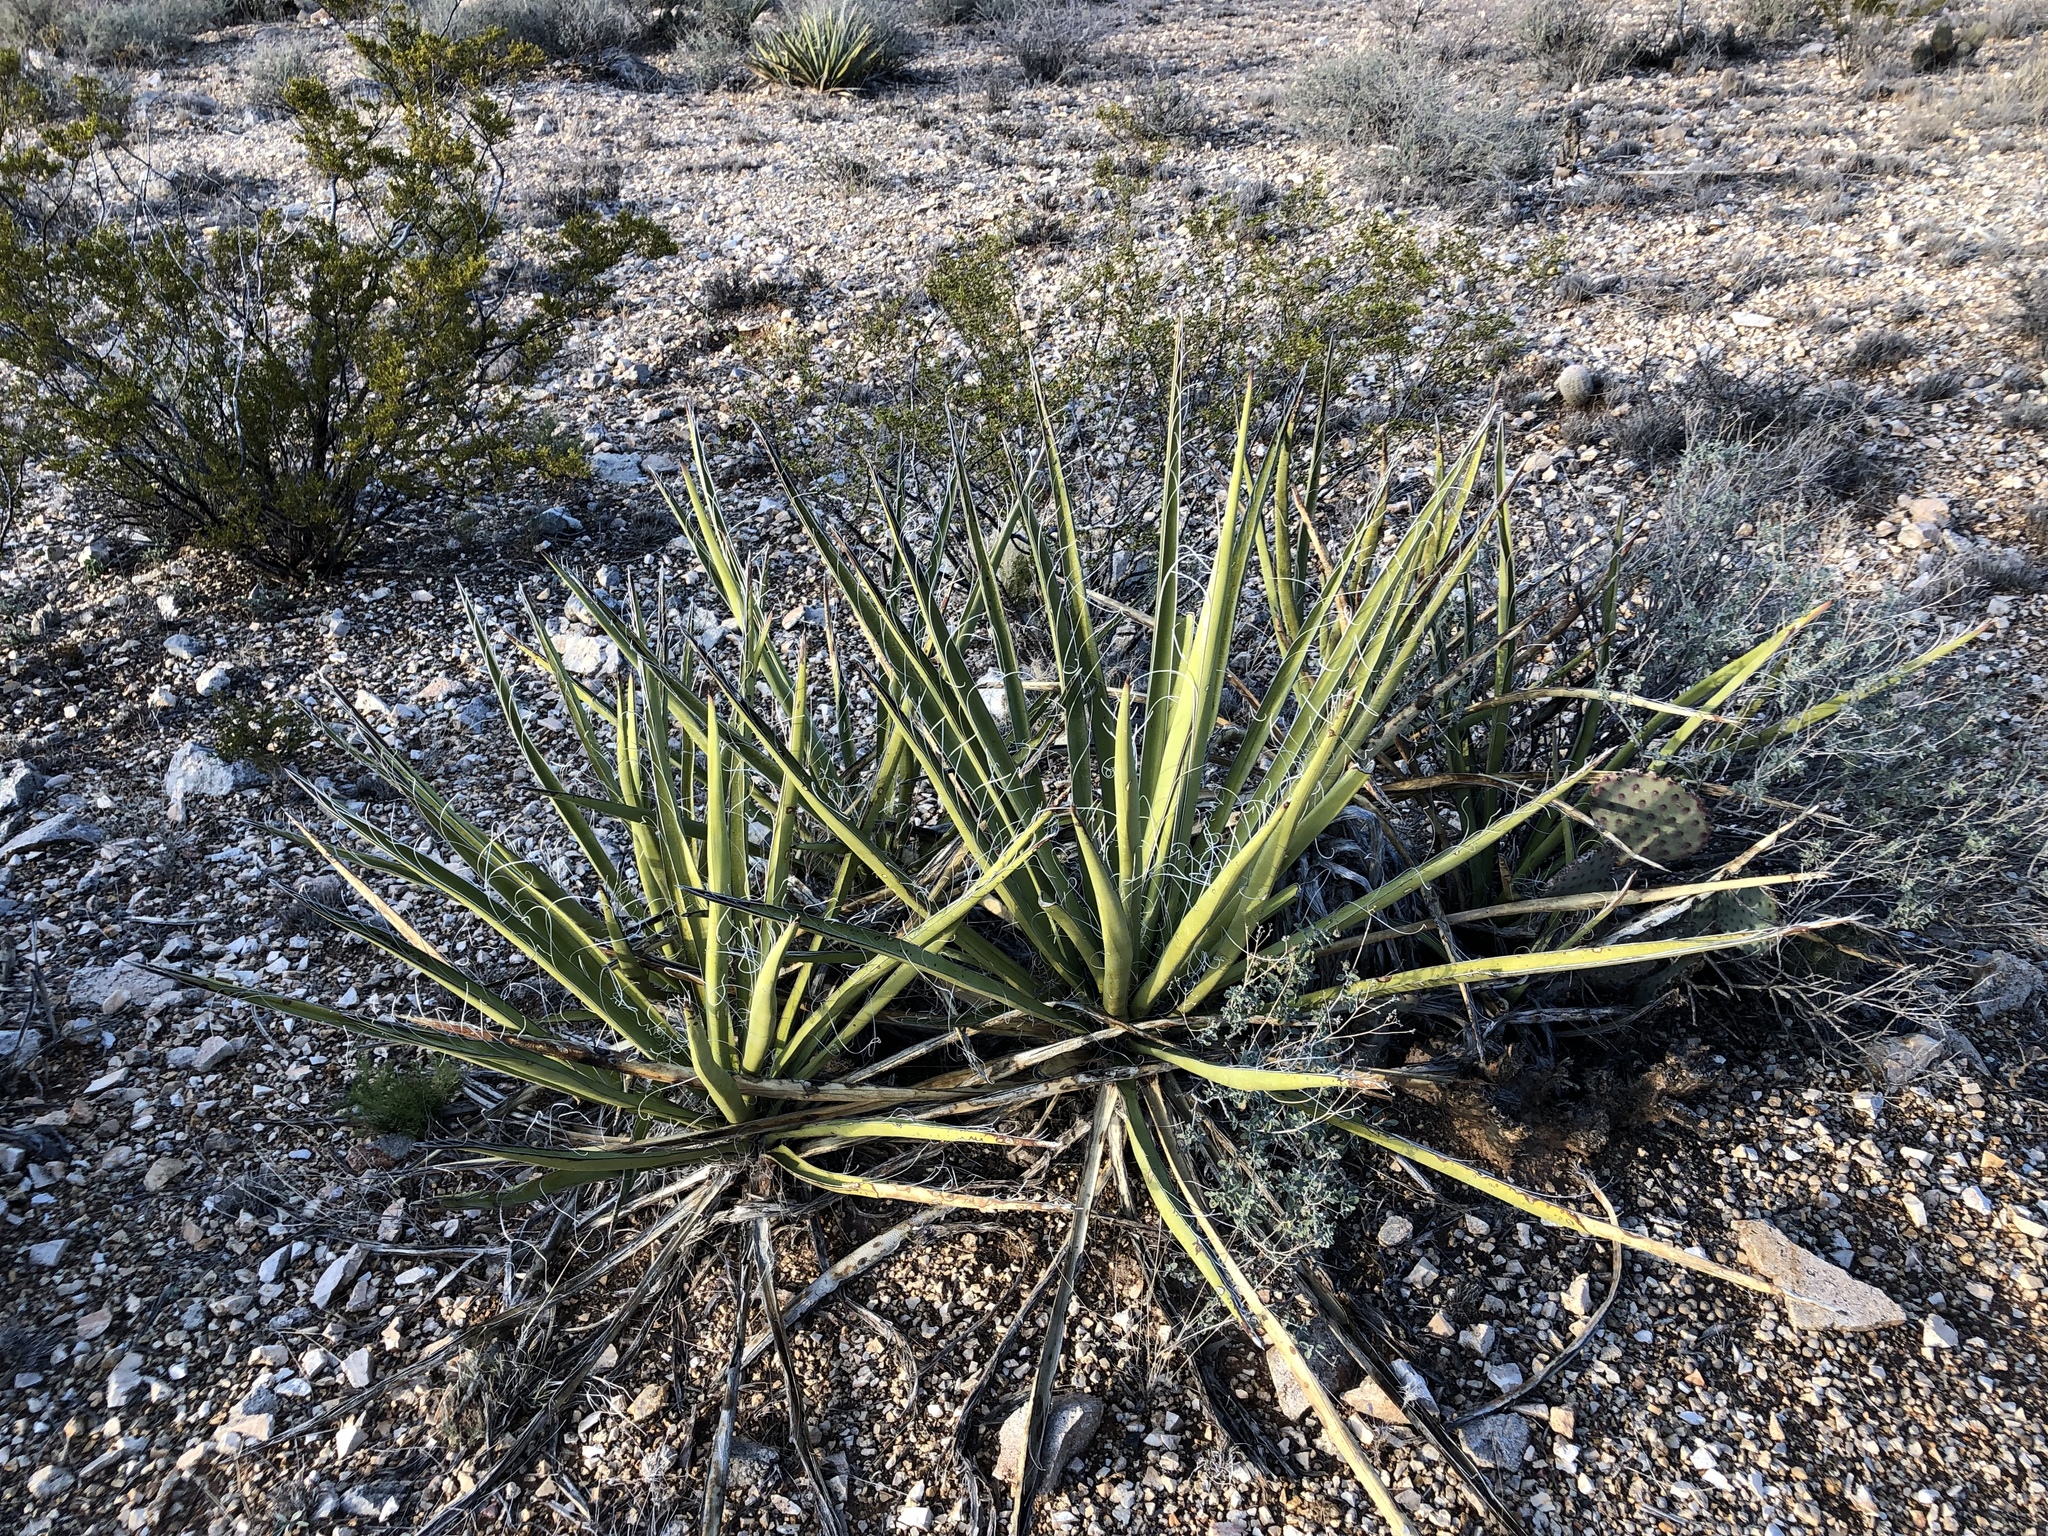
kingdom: Plantae
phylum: Tracheophyta
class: Liliopsida
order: Asparagales
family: Asparagaceae
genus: Yucca
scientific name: Yucca baccata
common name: Banana yucca
